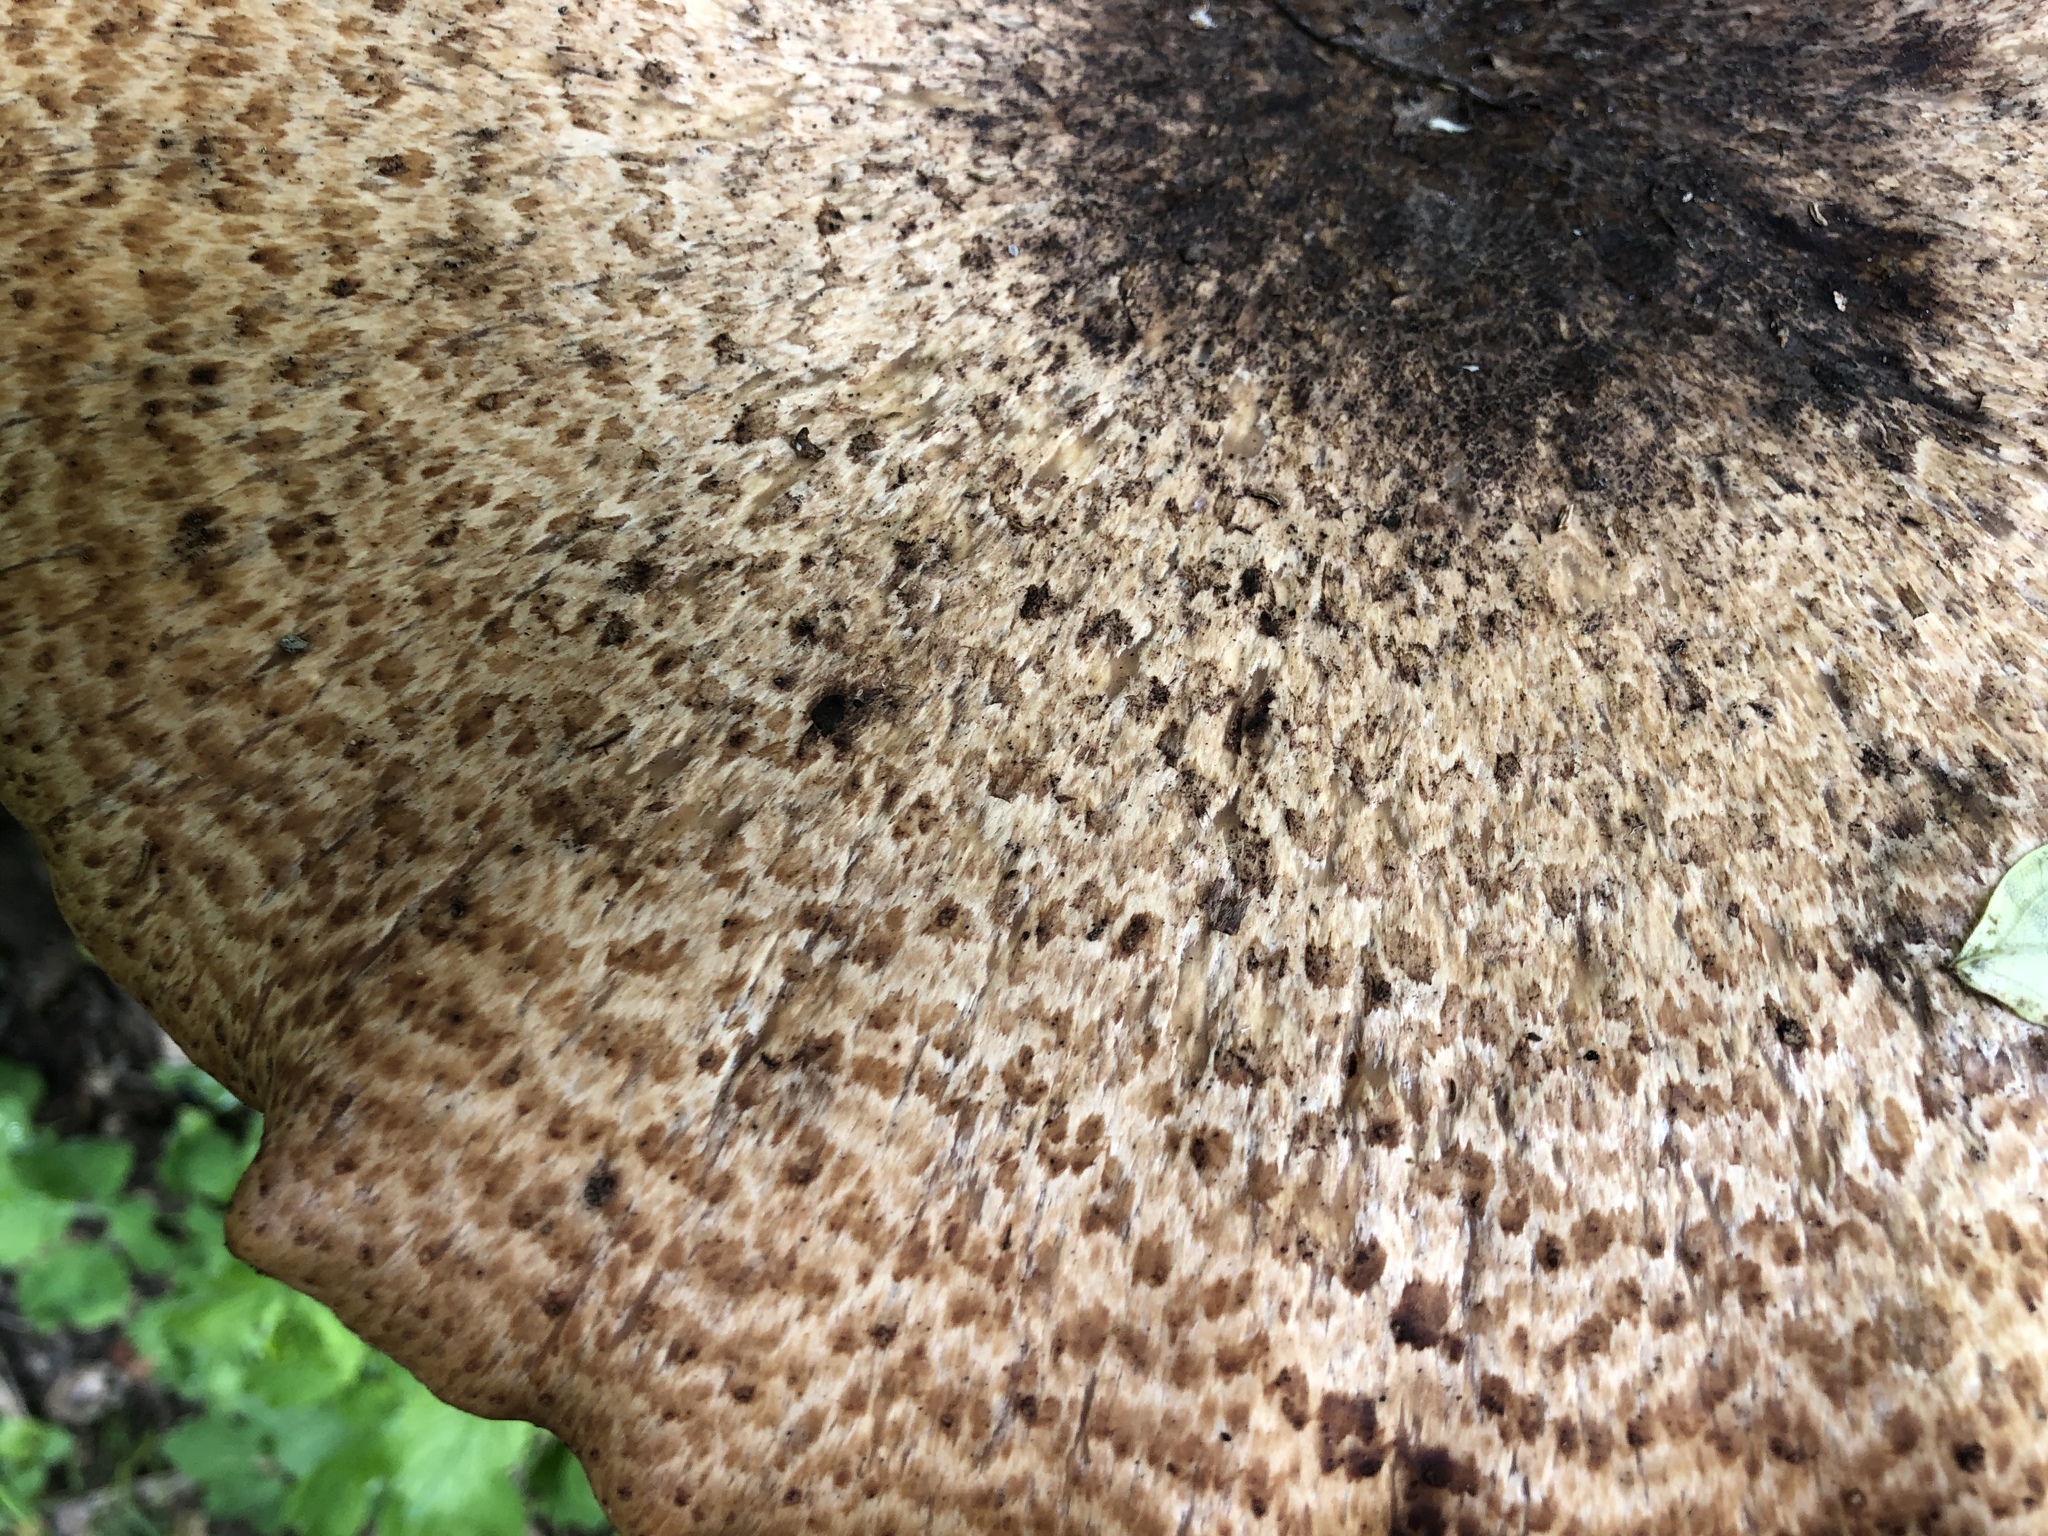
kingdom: Fungi
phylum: Basidiomycota
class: Agaricomycetes
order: Polyporales
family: Polyporaceae
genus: Cerioporus
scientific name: Cerioporus squamosus
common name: Dryad's saddle
